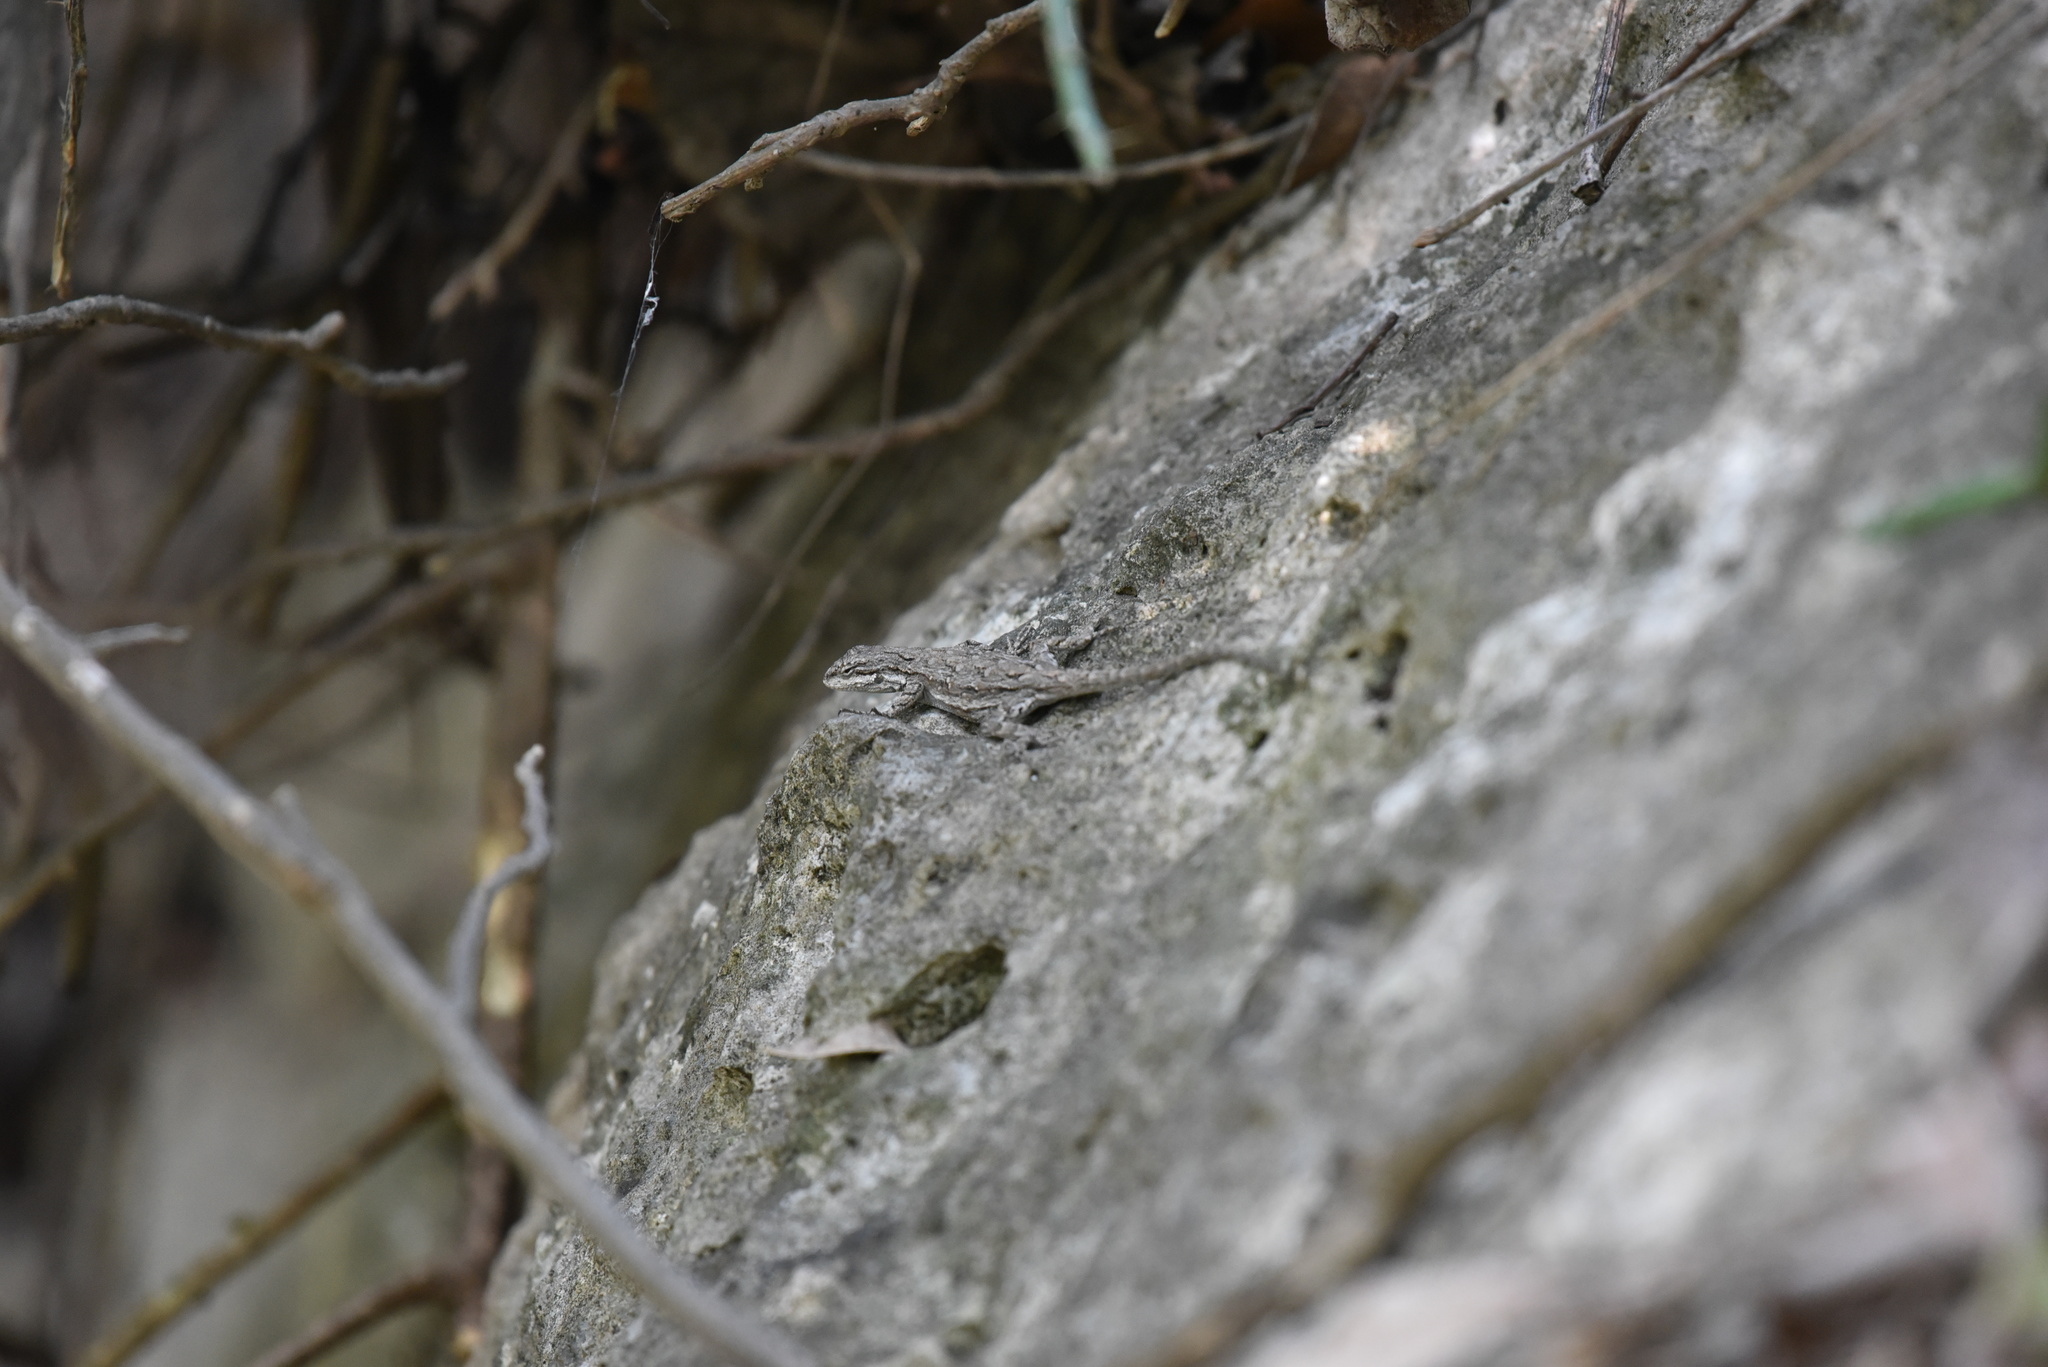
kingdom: Animalia
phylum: Chordata
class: Squamata
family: Phrynosomatidae
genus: Urosaurus
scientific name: Urosaurus ornatus
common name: Ornate tree lizard
